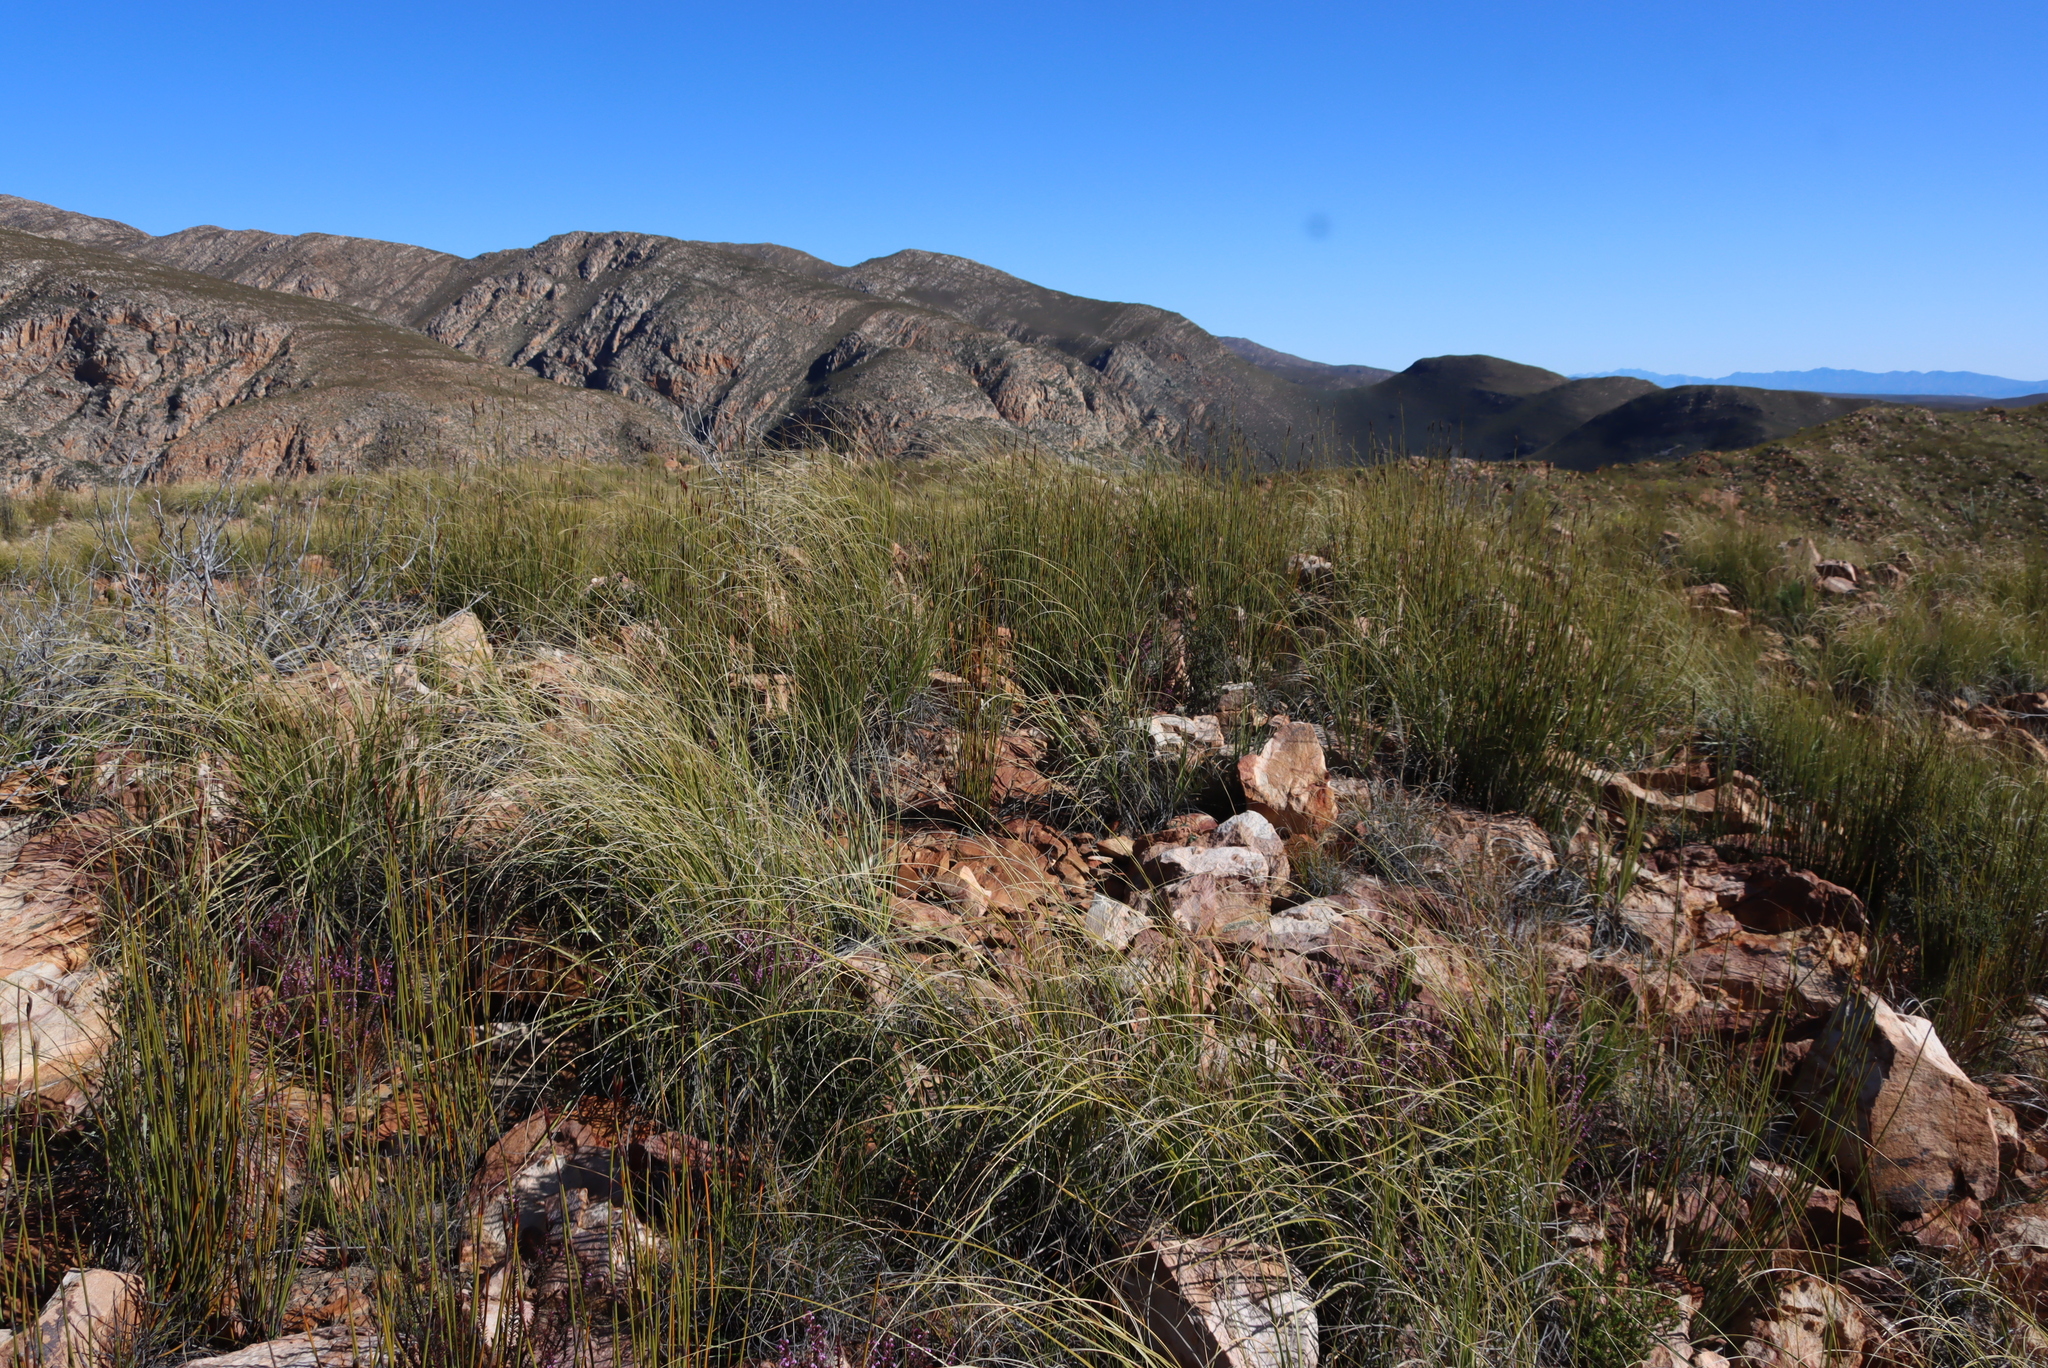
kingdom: Plantae
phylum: Tracheophyta
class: Liliopsida
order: Poales
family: Restionaceae
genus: Cannomois
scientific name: Cannomois scirpoides
